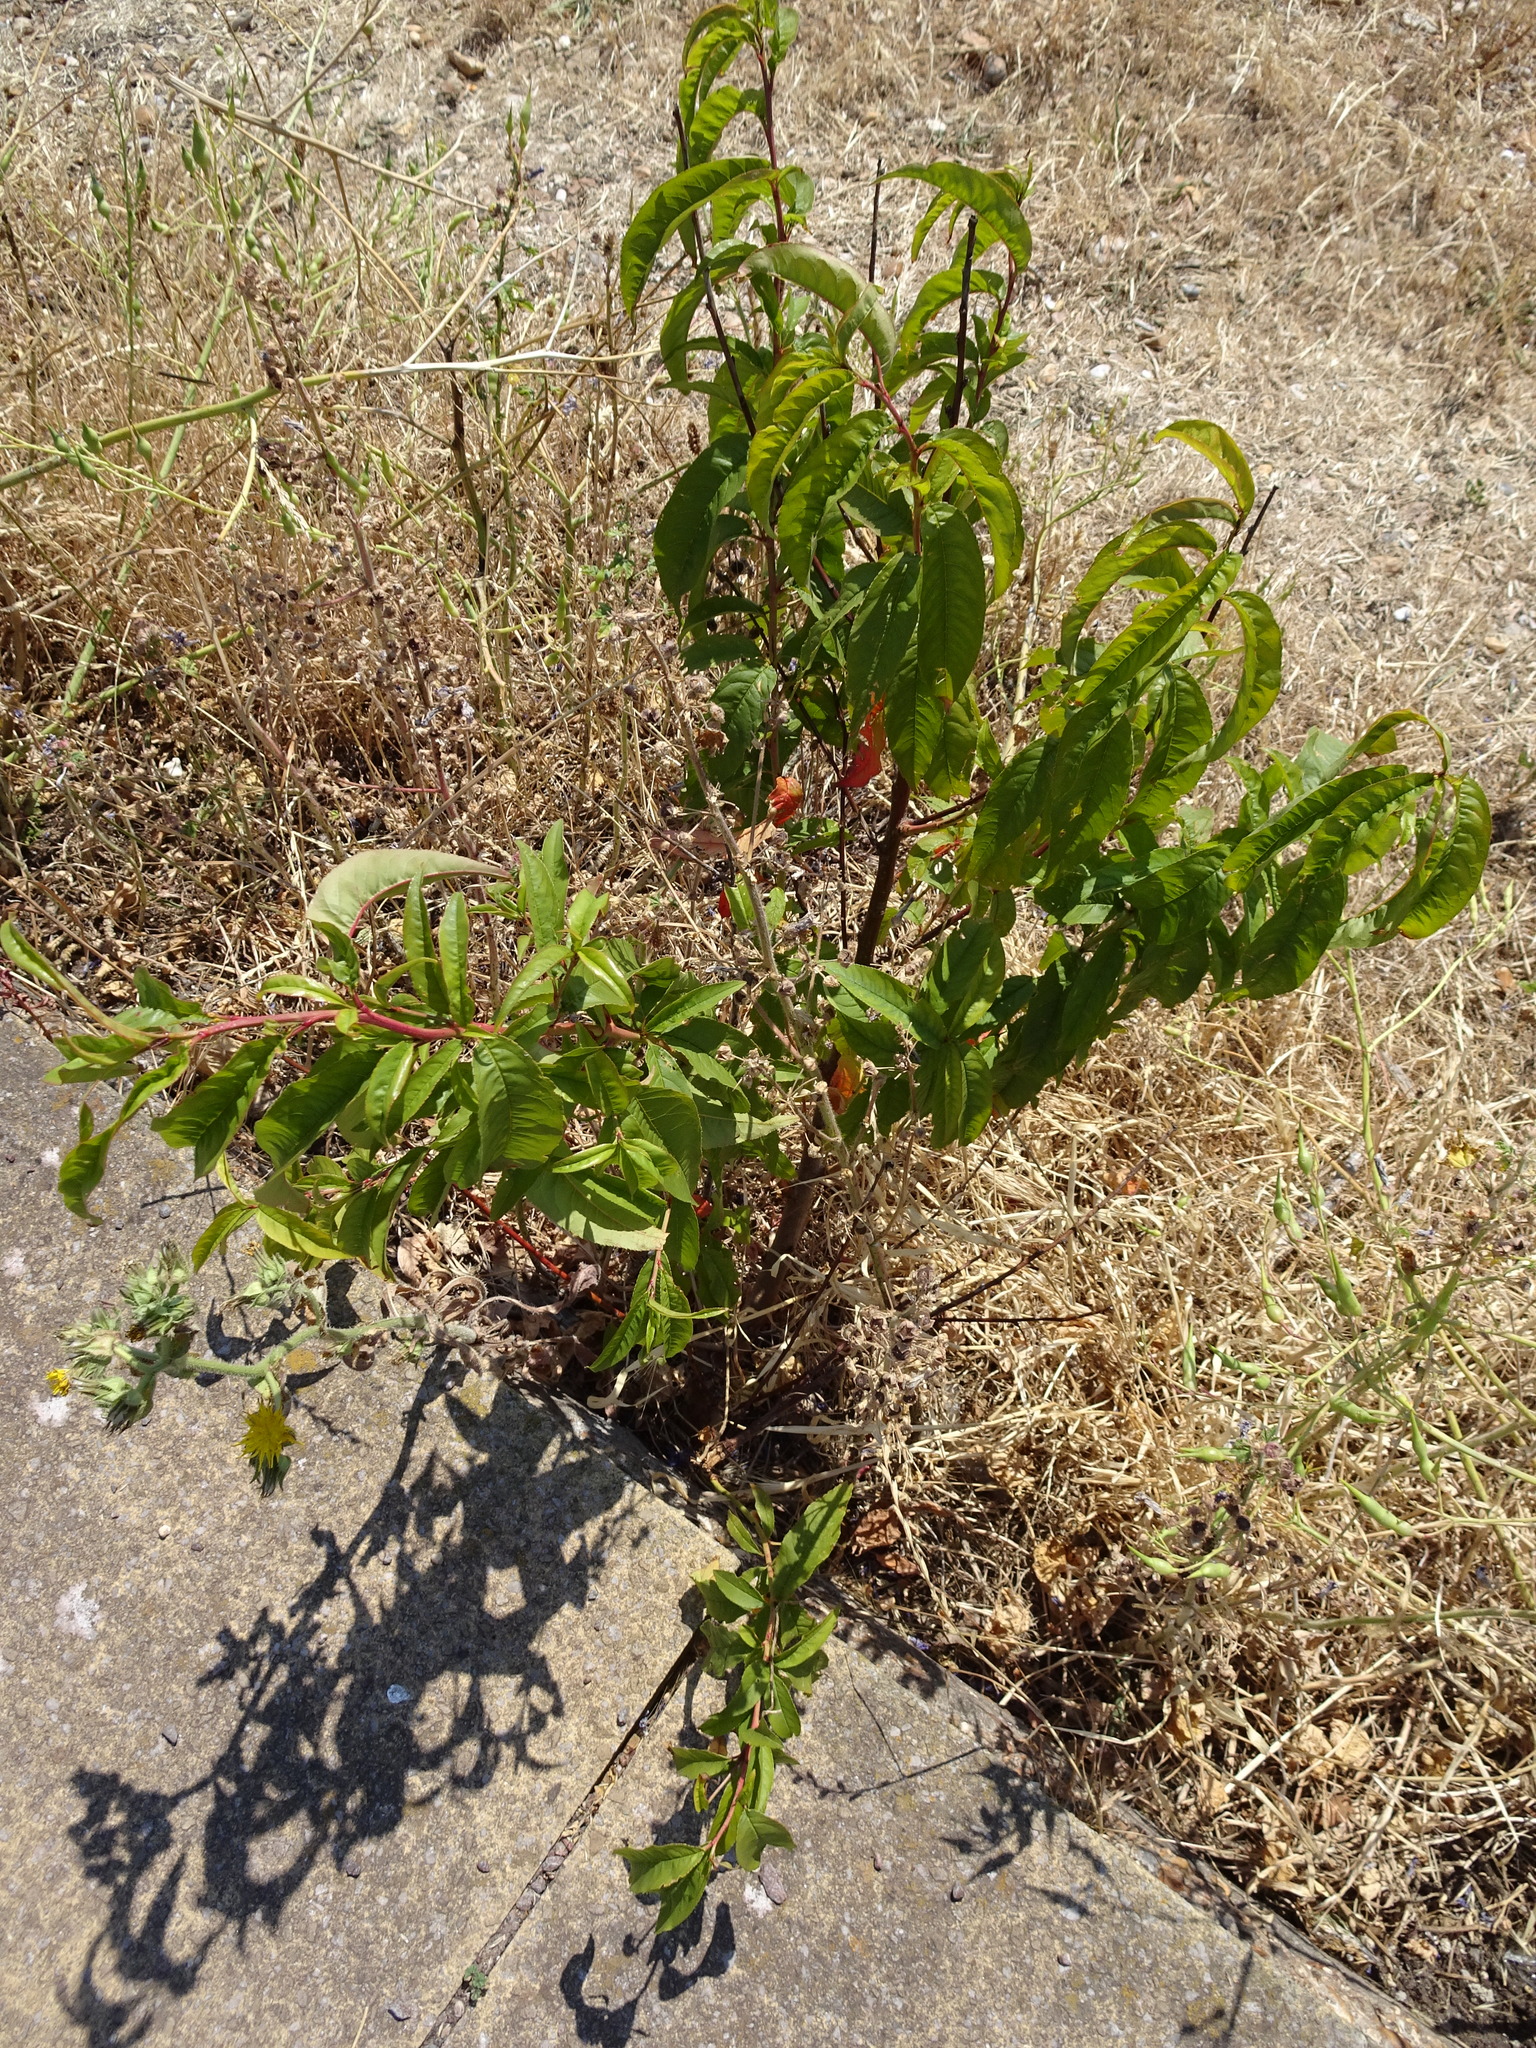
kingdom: Plantae
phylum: Tracheophyta
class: Magnoliopsida
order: Rosales
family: Rosaceae
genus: Prunus
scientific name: Prunus persica
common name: Peach
